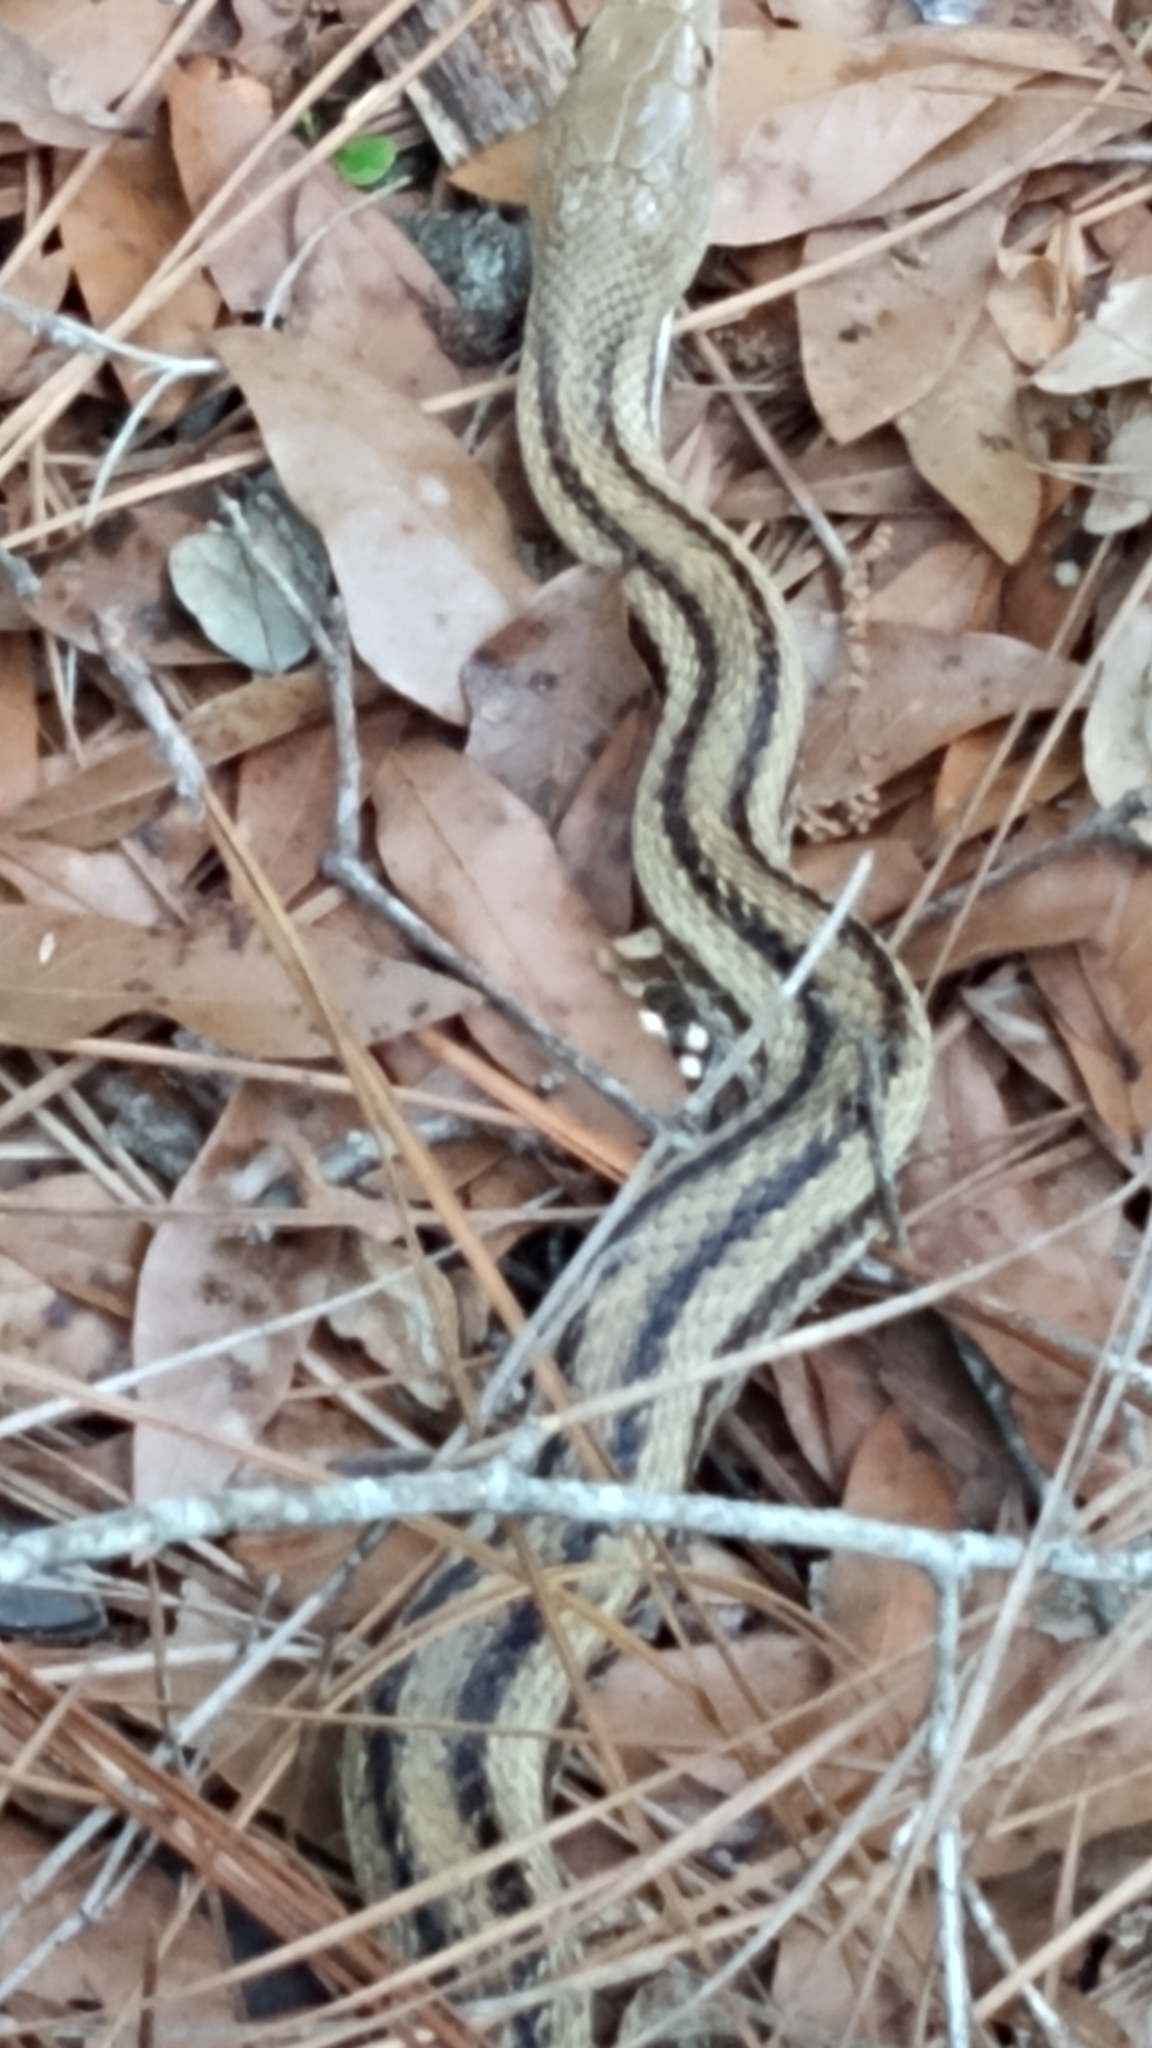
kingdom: Animalia
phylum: Chordata
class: Squamata
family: Colubridae
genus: Pantherophis
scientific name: Pantherophis alleghaniensis
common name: Eastern rat snake
